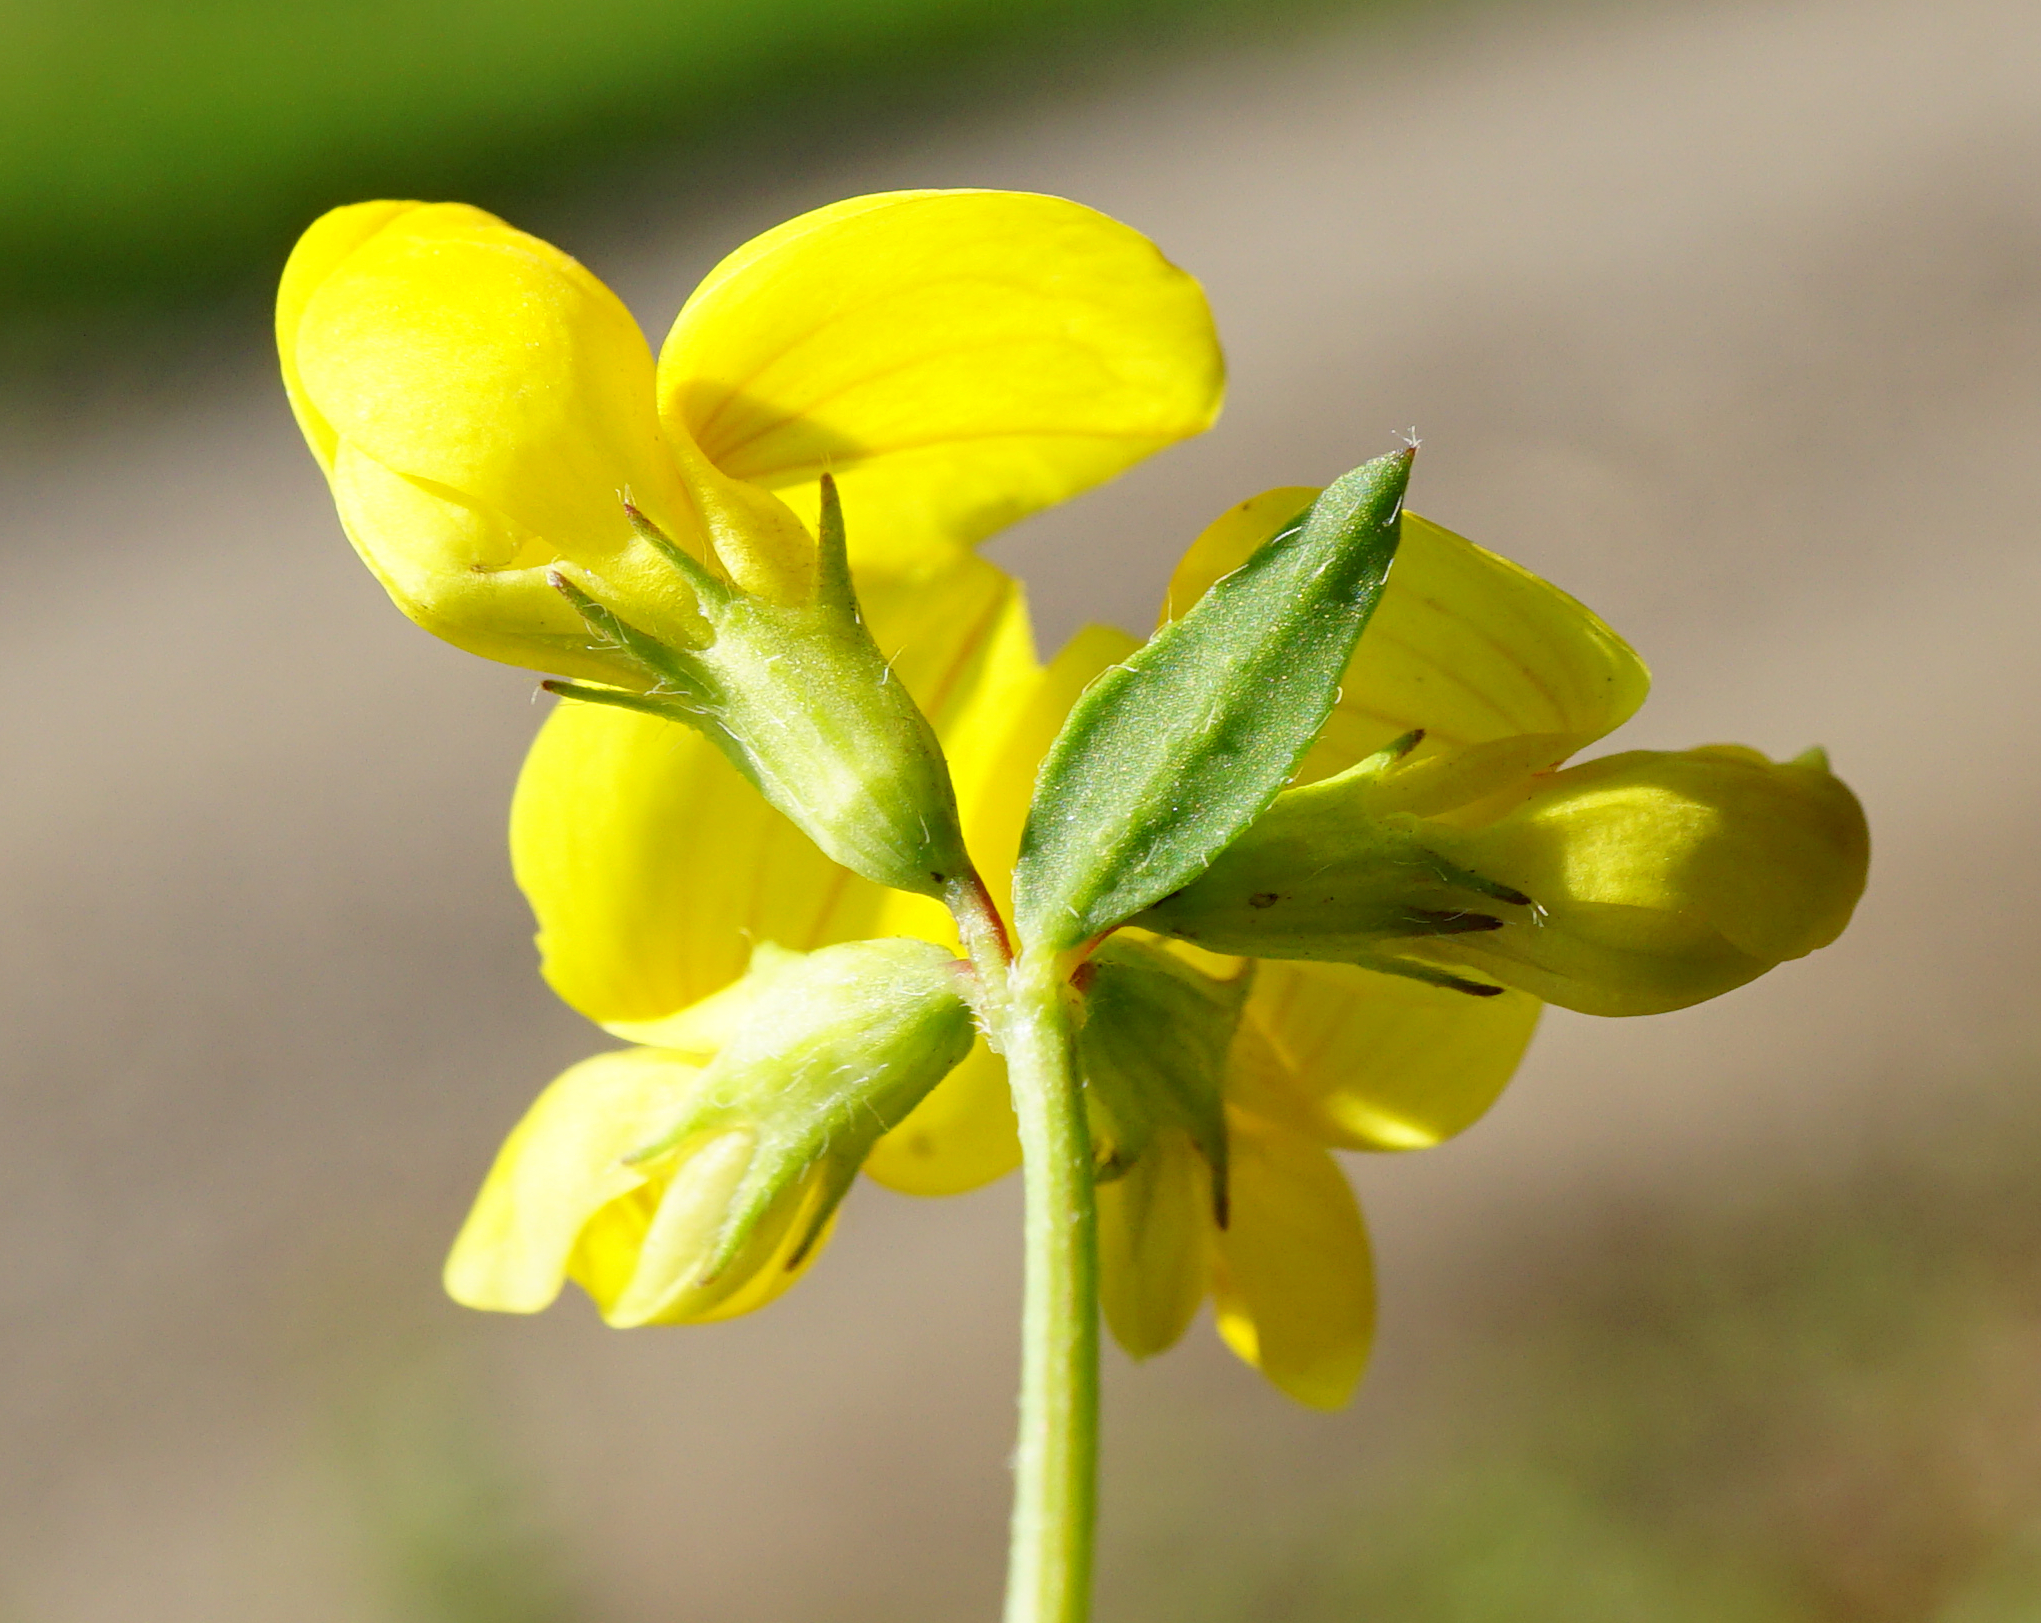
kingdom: Plantae
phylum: Tracheophyta
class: Magnoliopsida
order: Fabales
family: Fabaceae
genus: Lotus
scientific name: Lotus corniculatus
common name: Common bird's-foot-trefoil
